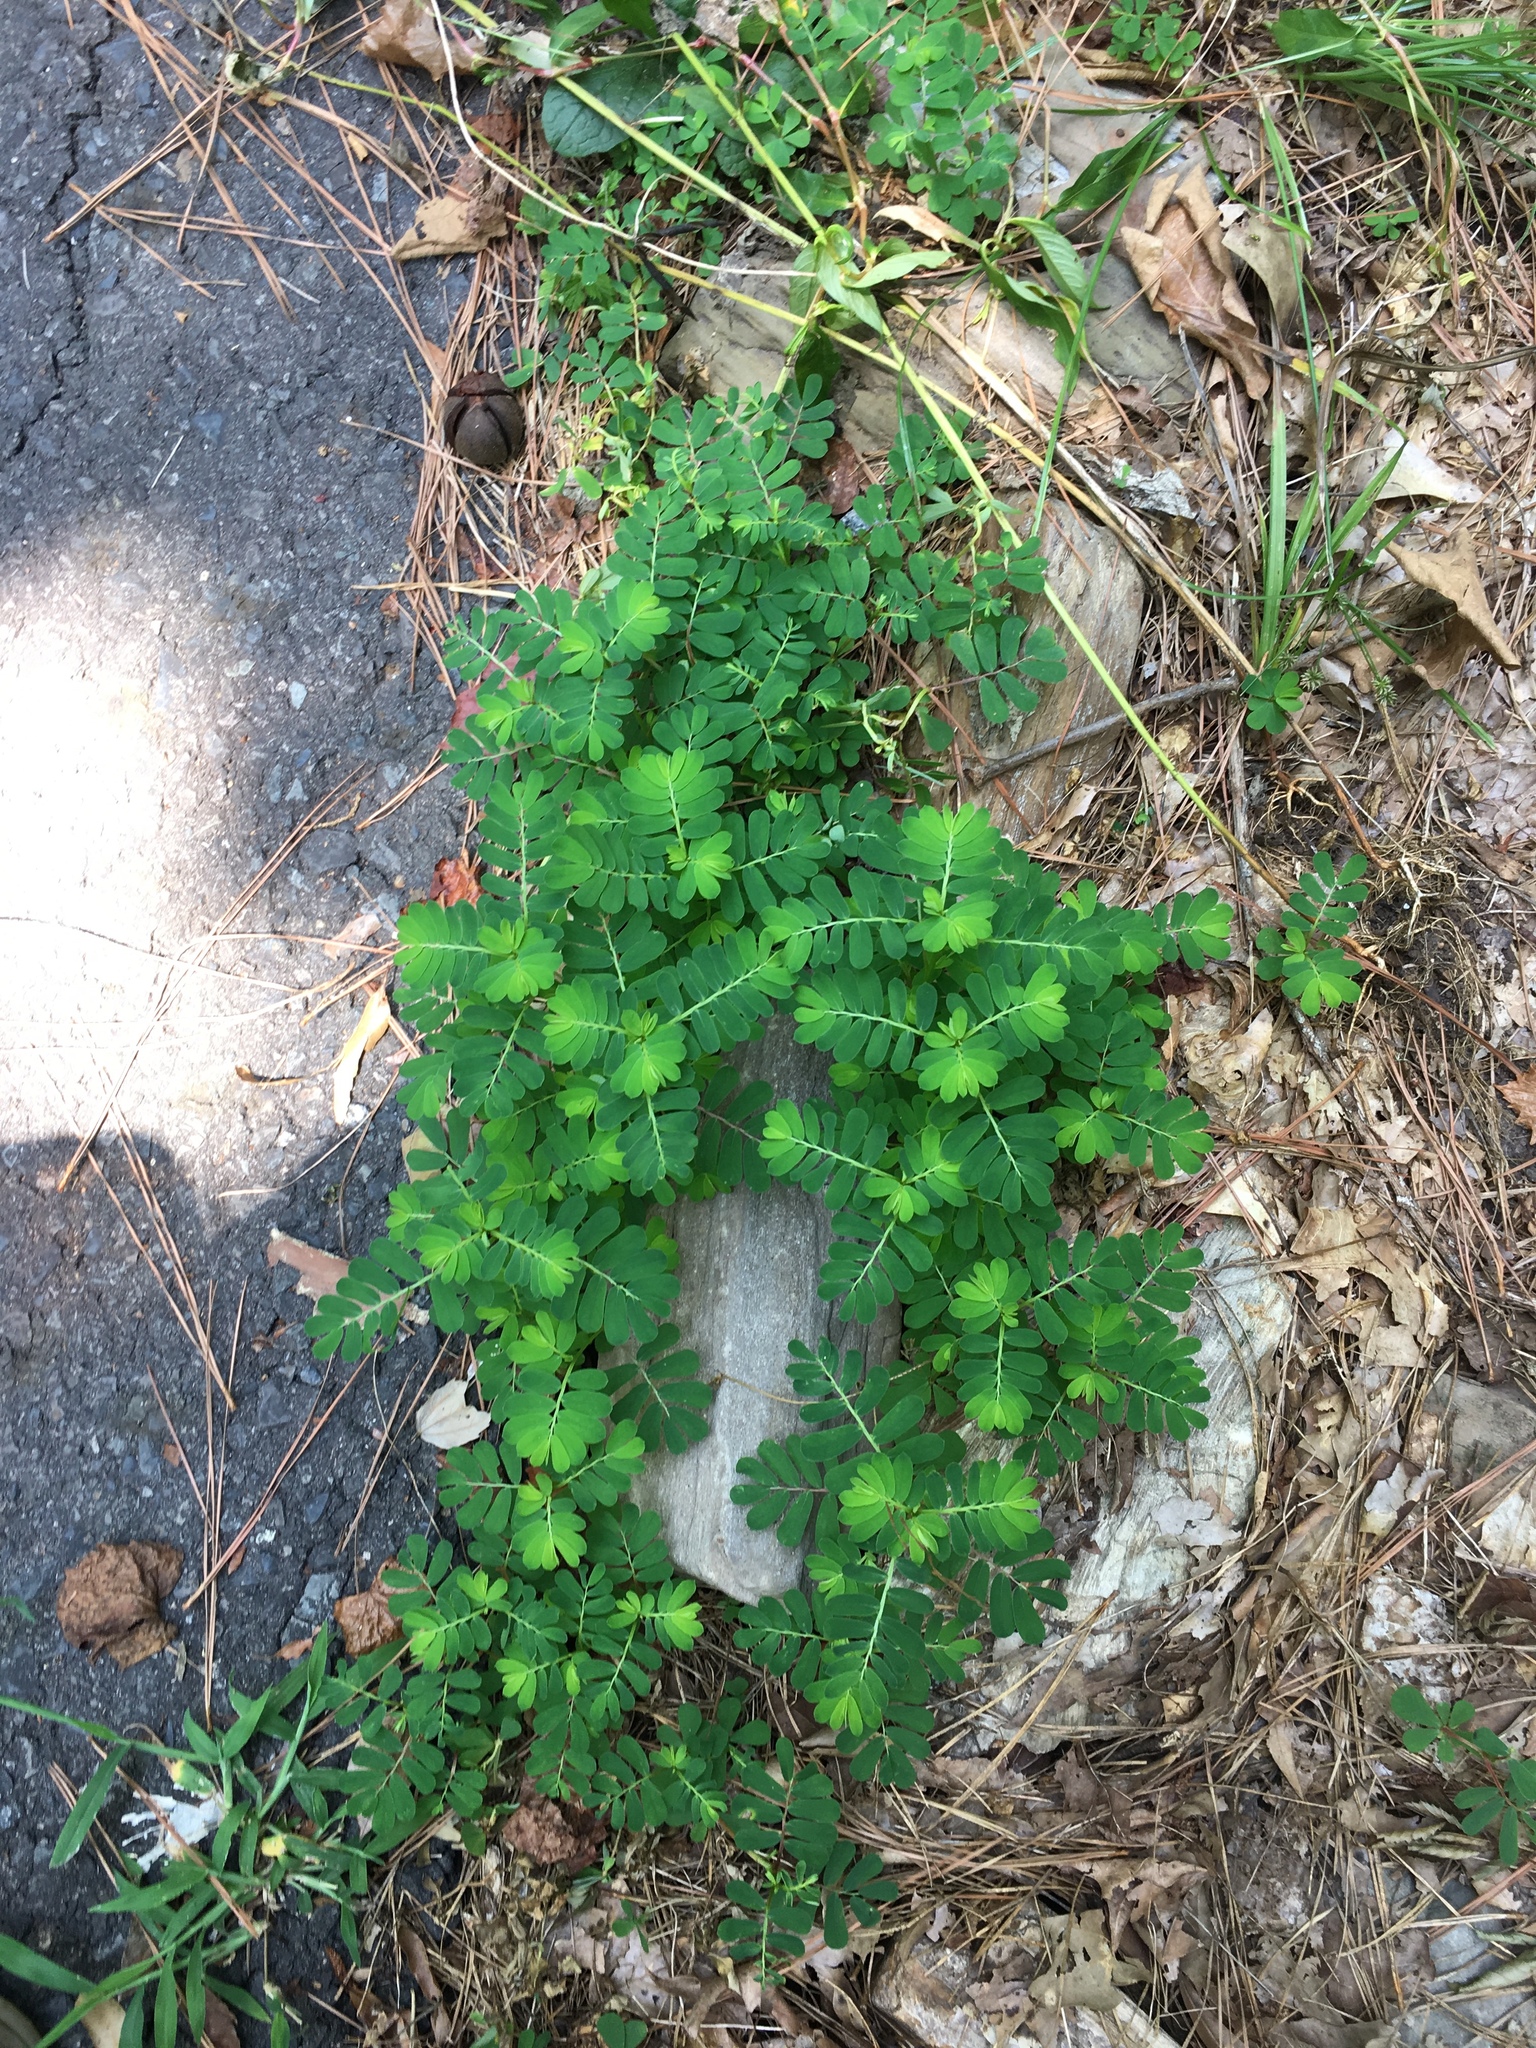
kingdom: Plantae
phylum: Tracheophyta
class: Magnoliopsida
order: Malpighiales
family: Phyllanthaceae
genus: Phyllanthus
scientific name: Phyllanthus urinaria
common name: Chamber bitter
